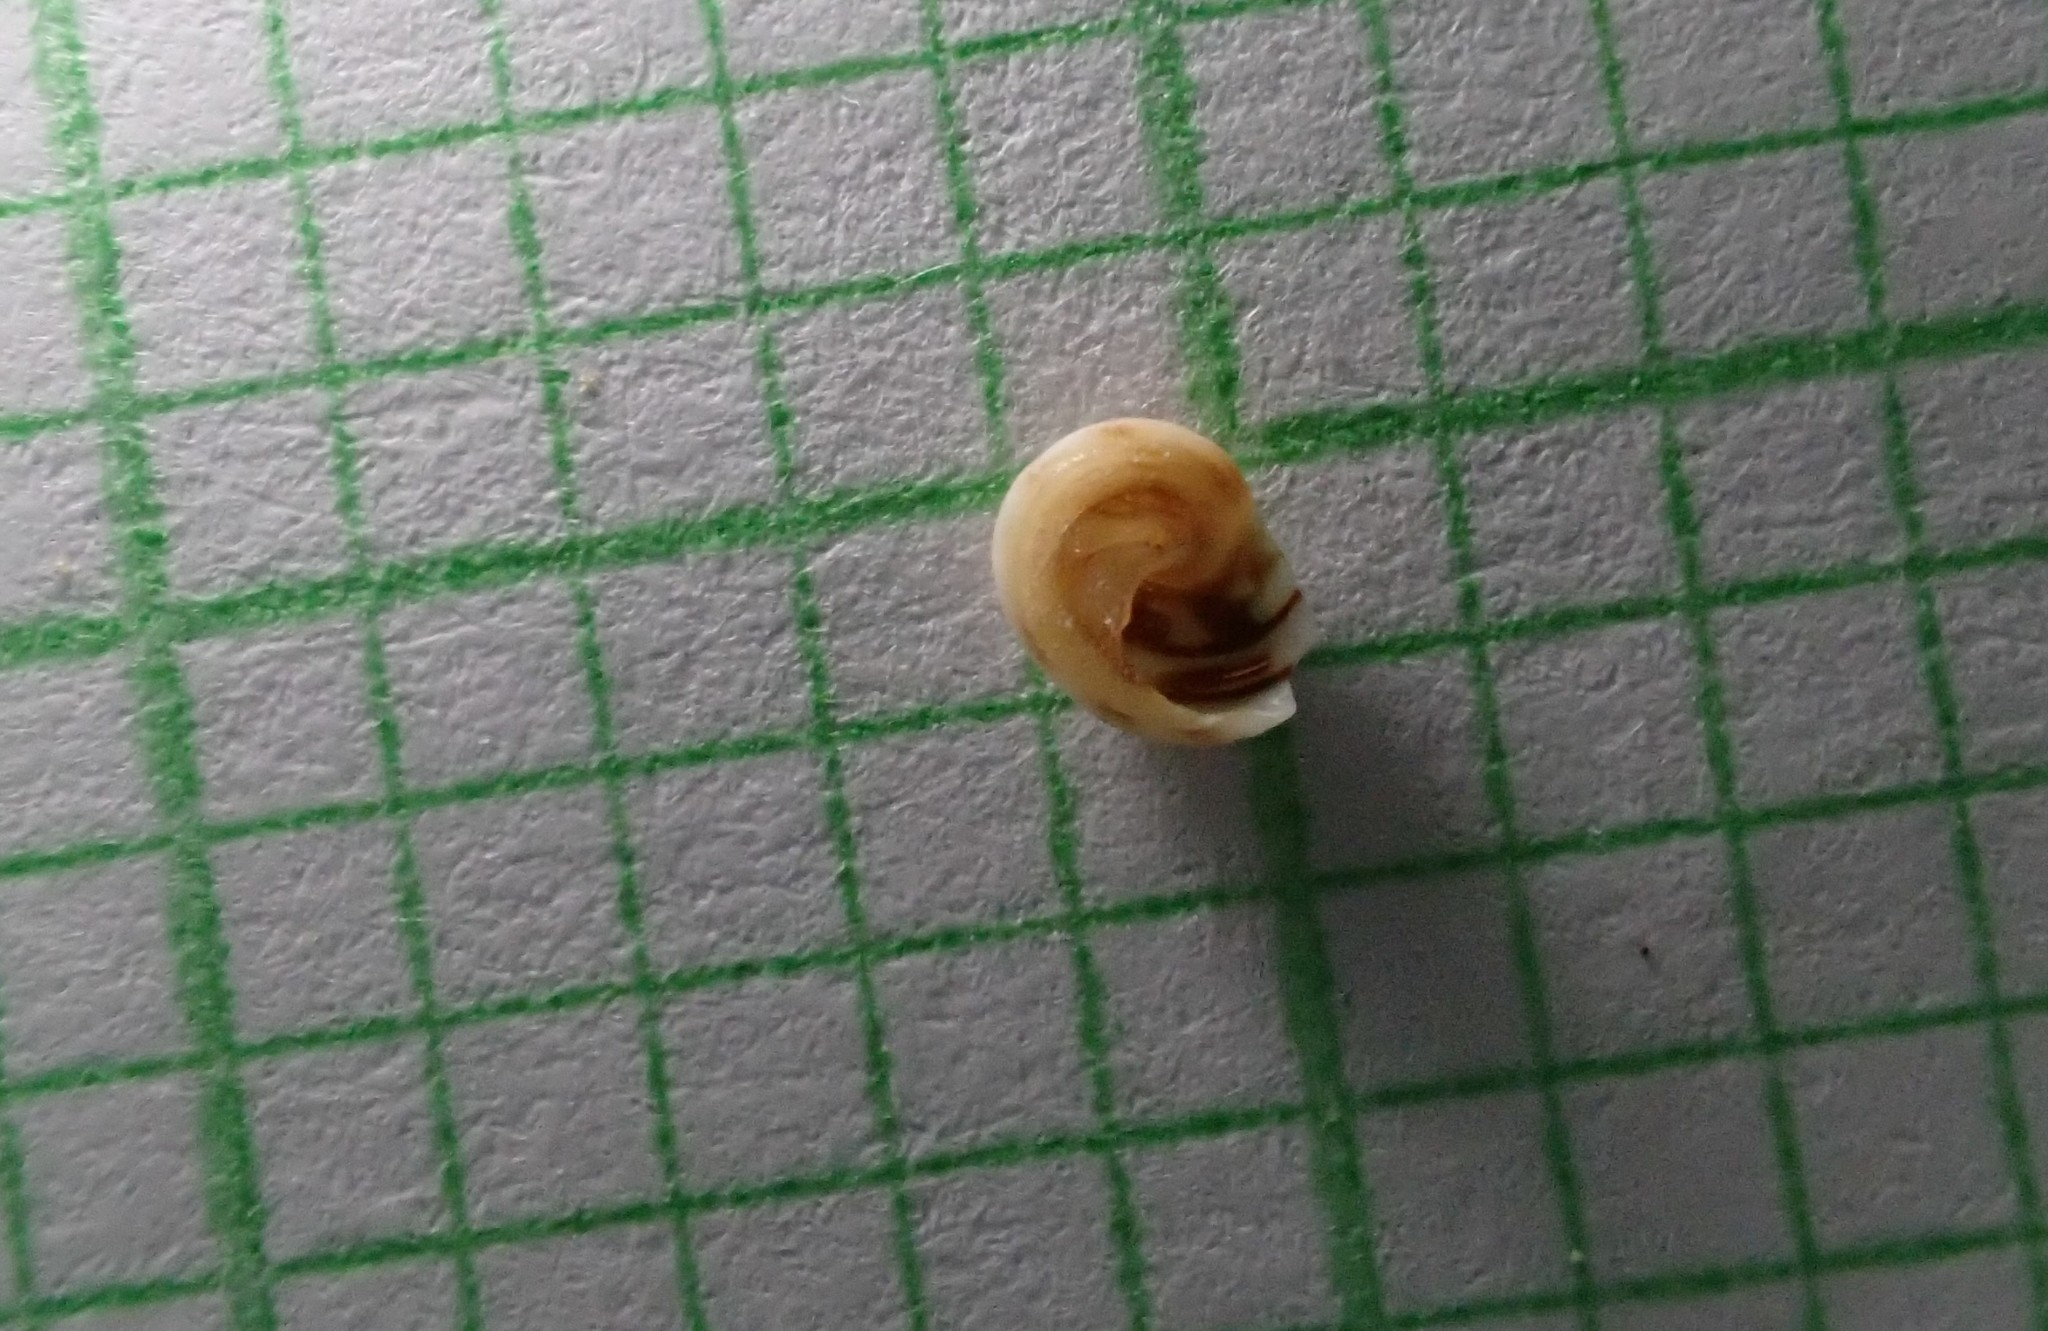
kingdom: Animalia
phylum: Mollusca
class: Gastropoda
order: Littorinimorpha
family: Littorinidae
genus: Risellopsis
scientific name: Risellopsis varia
